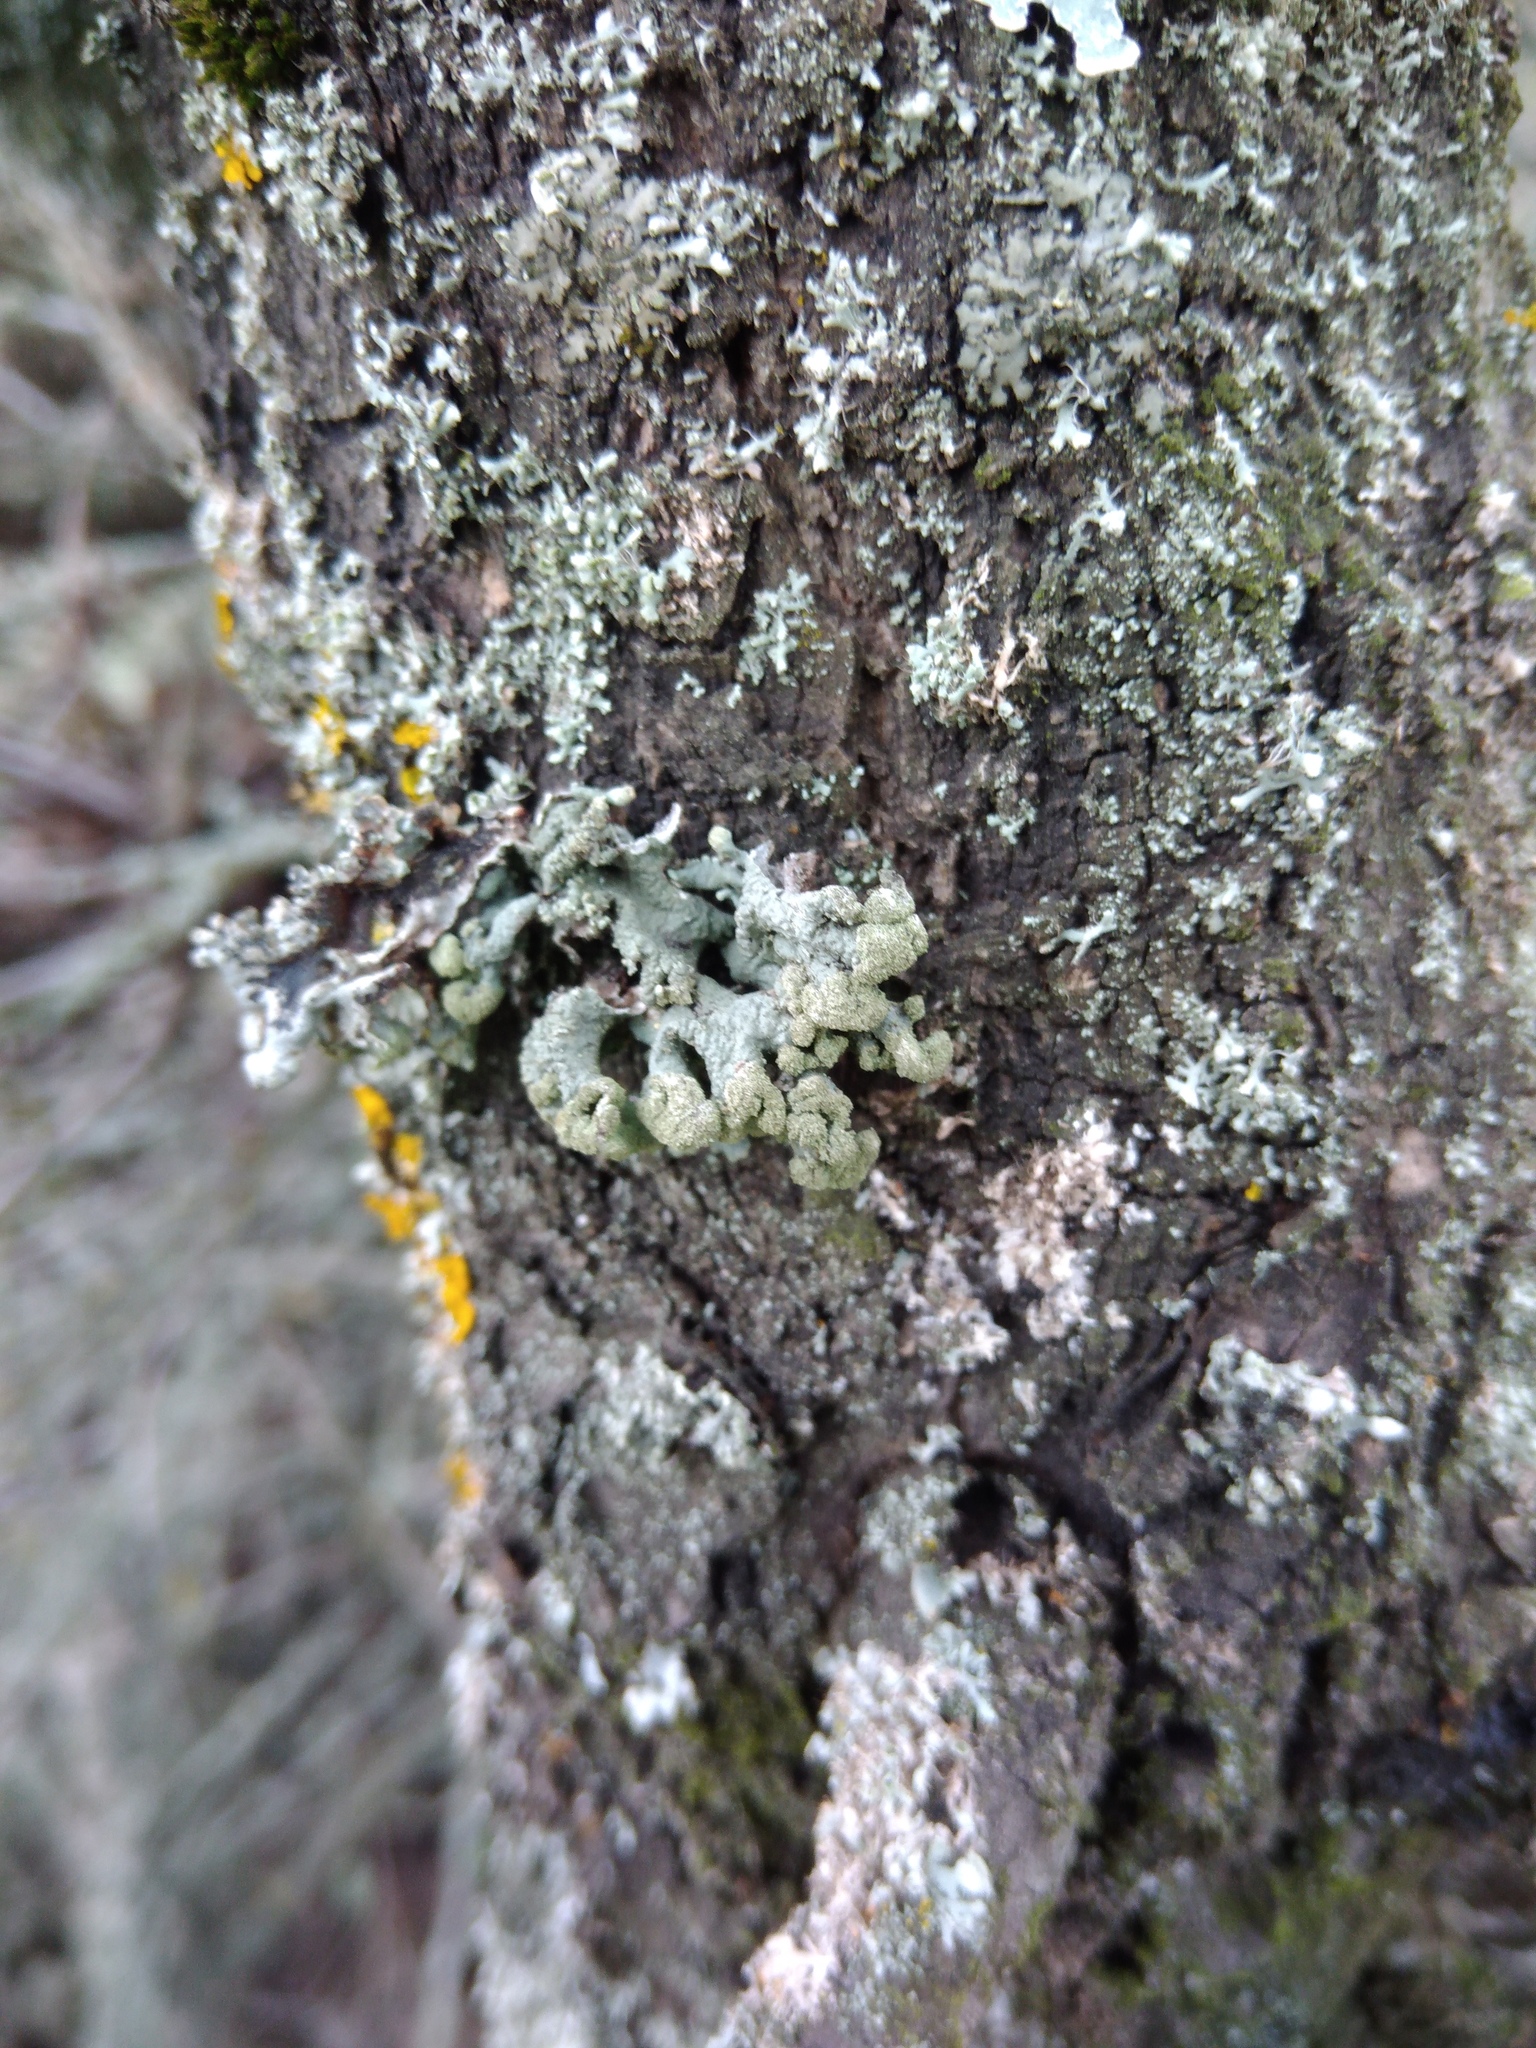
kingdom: Fungi
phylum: Ascomycota
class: Lecanoromycetes
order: Lecanorales
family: Parmeliaceae
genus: Hypogymnia
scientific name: Hypogymnia tubulosa
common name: Powder-headed tube lichen
